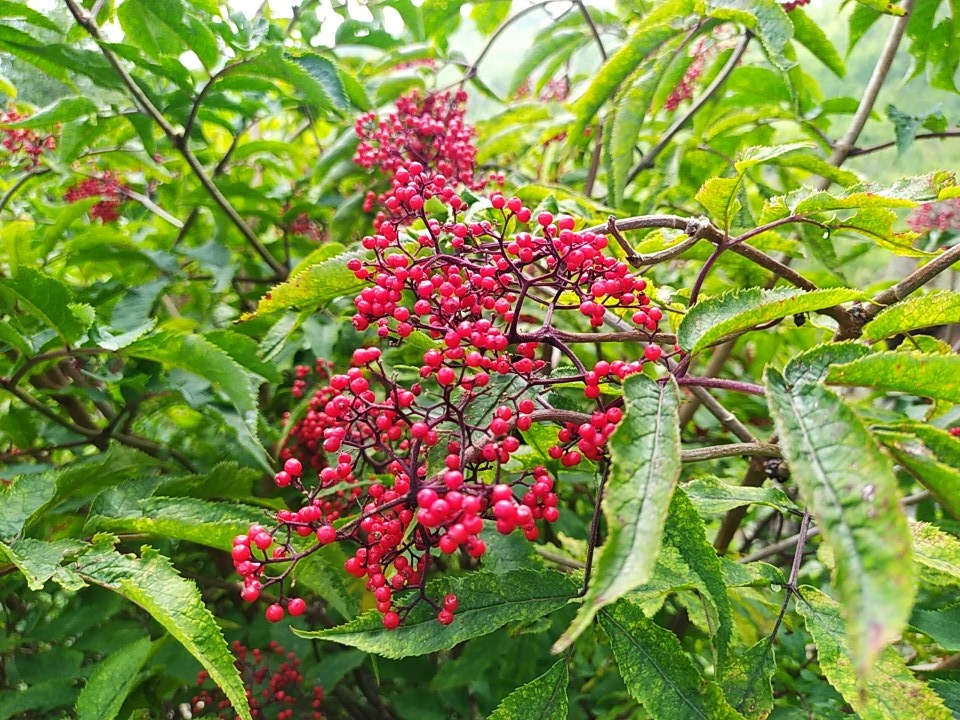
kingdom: Plantae
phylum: Tracheophyta
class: Magnoliopsida
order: Dipsacales
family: Viburnaceae
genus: Sambucus
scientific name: Sambucus williamsii
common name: William's elder
